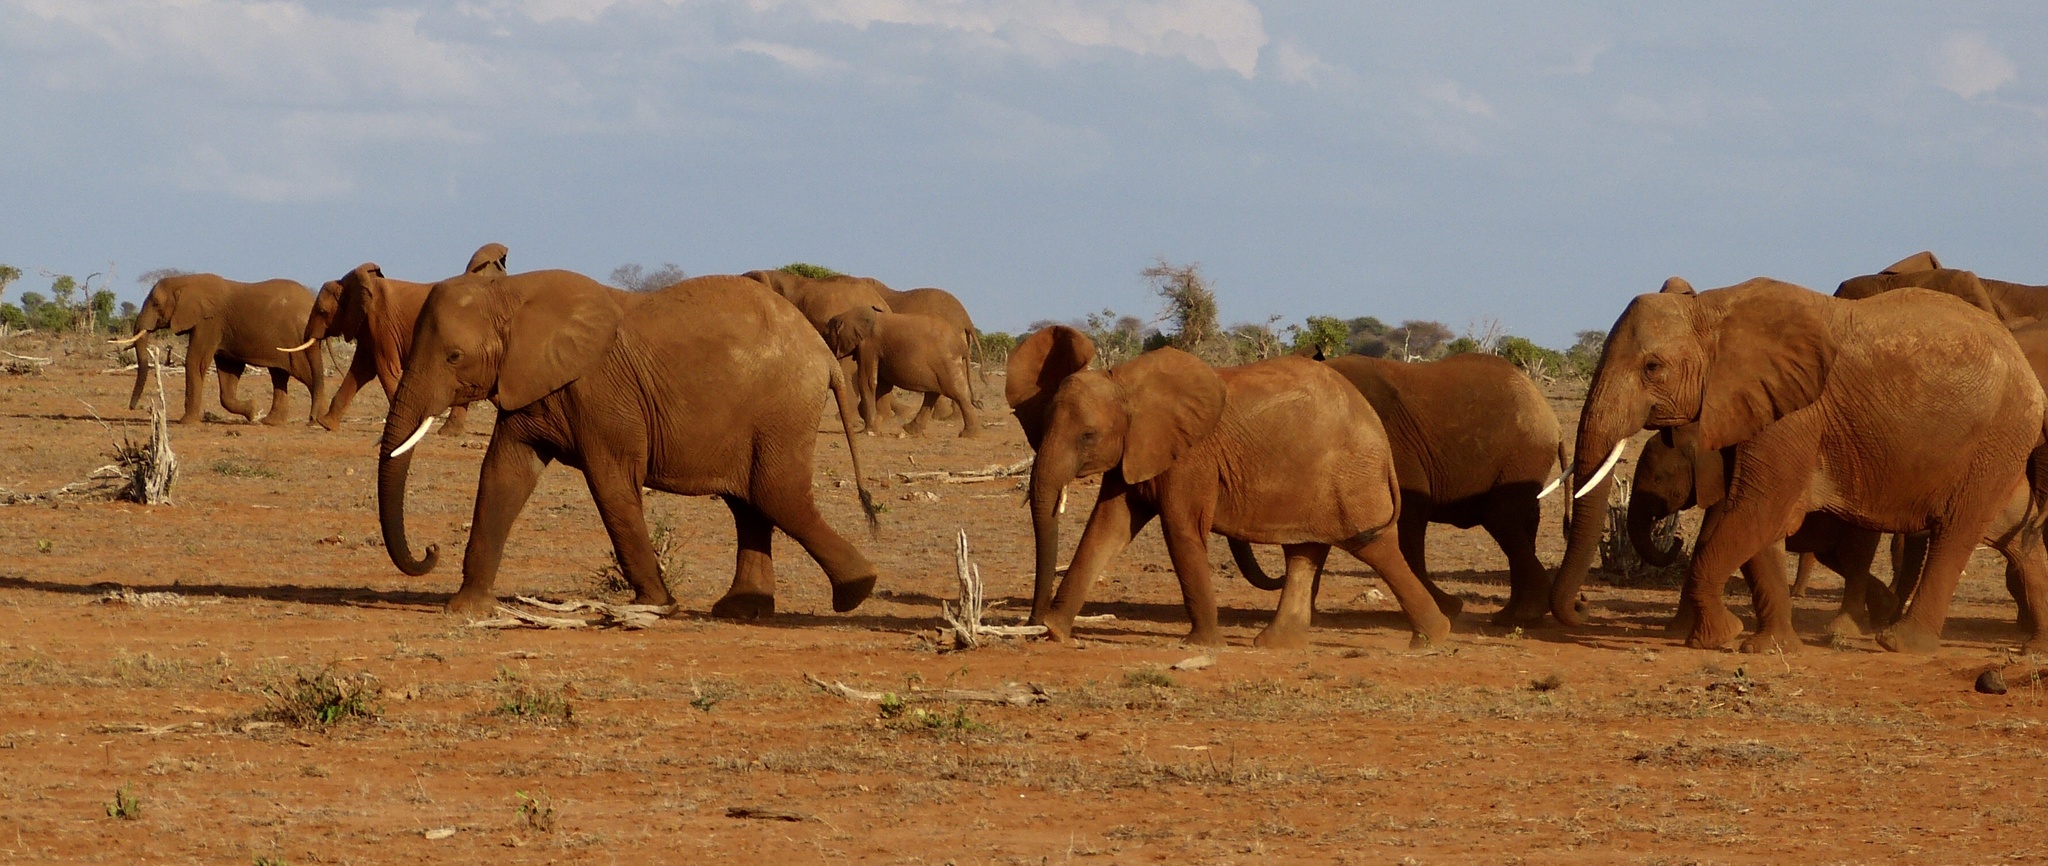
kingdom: Animalia
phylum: Chordata
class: Mammalia
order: Proboscidea
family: Elephantidae
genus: Loxodonta
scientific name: Loxodonta africana
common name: African elephant
